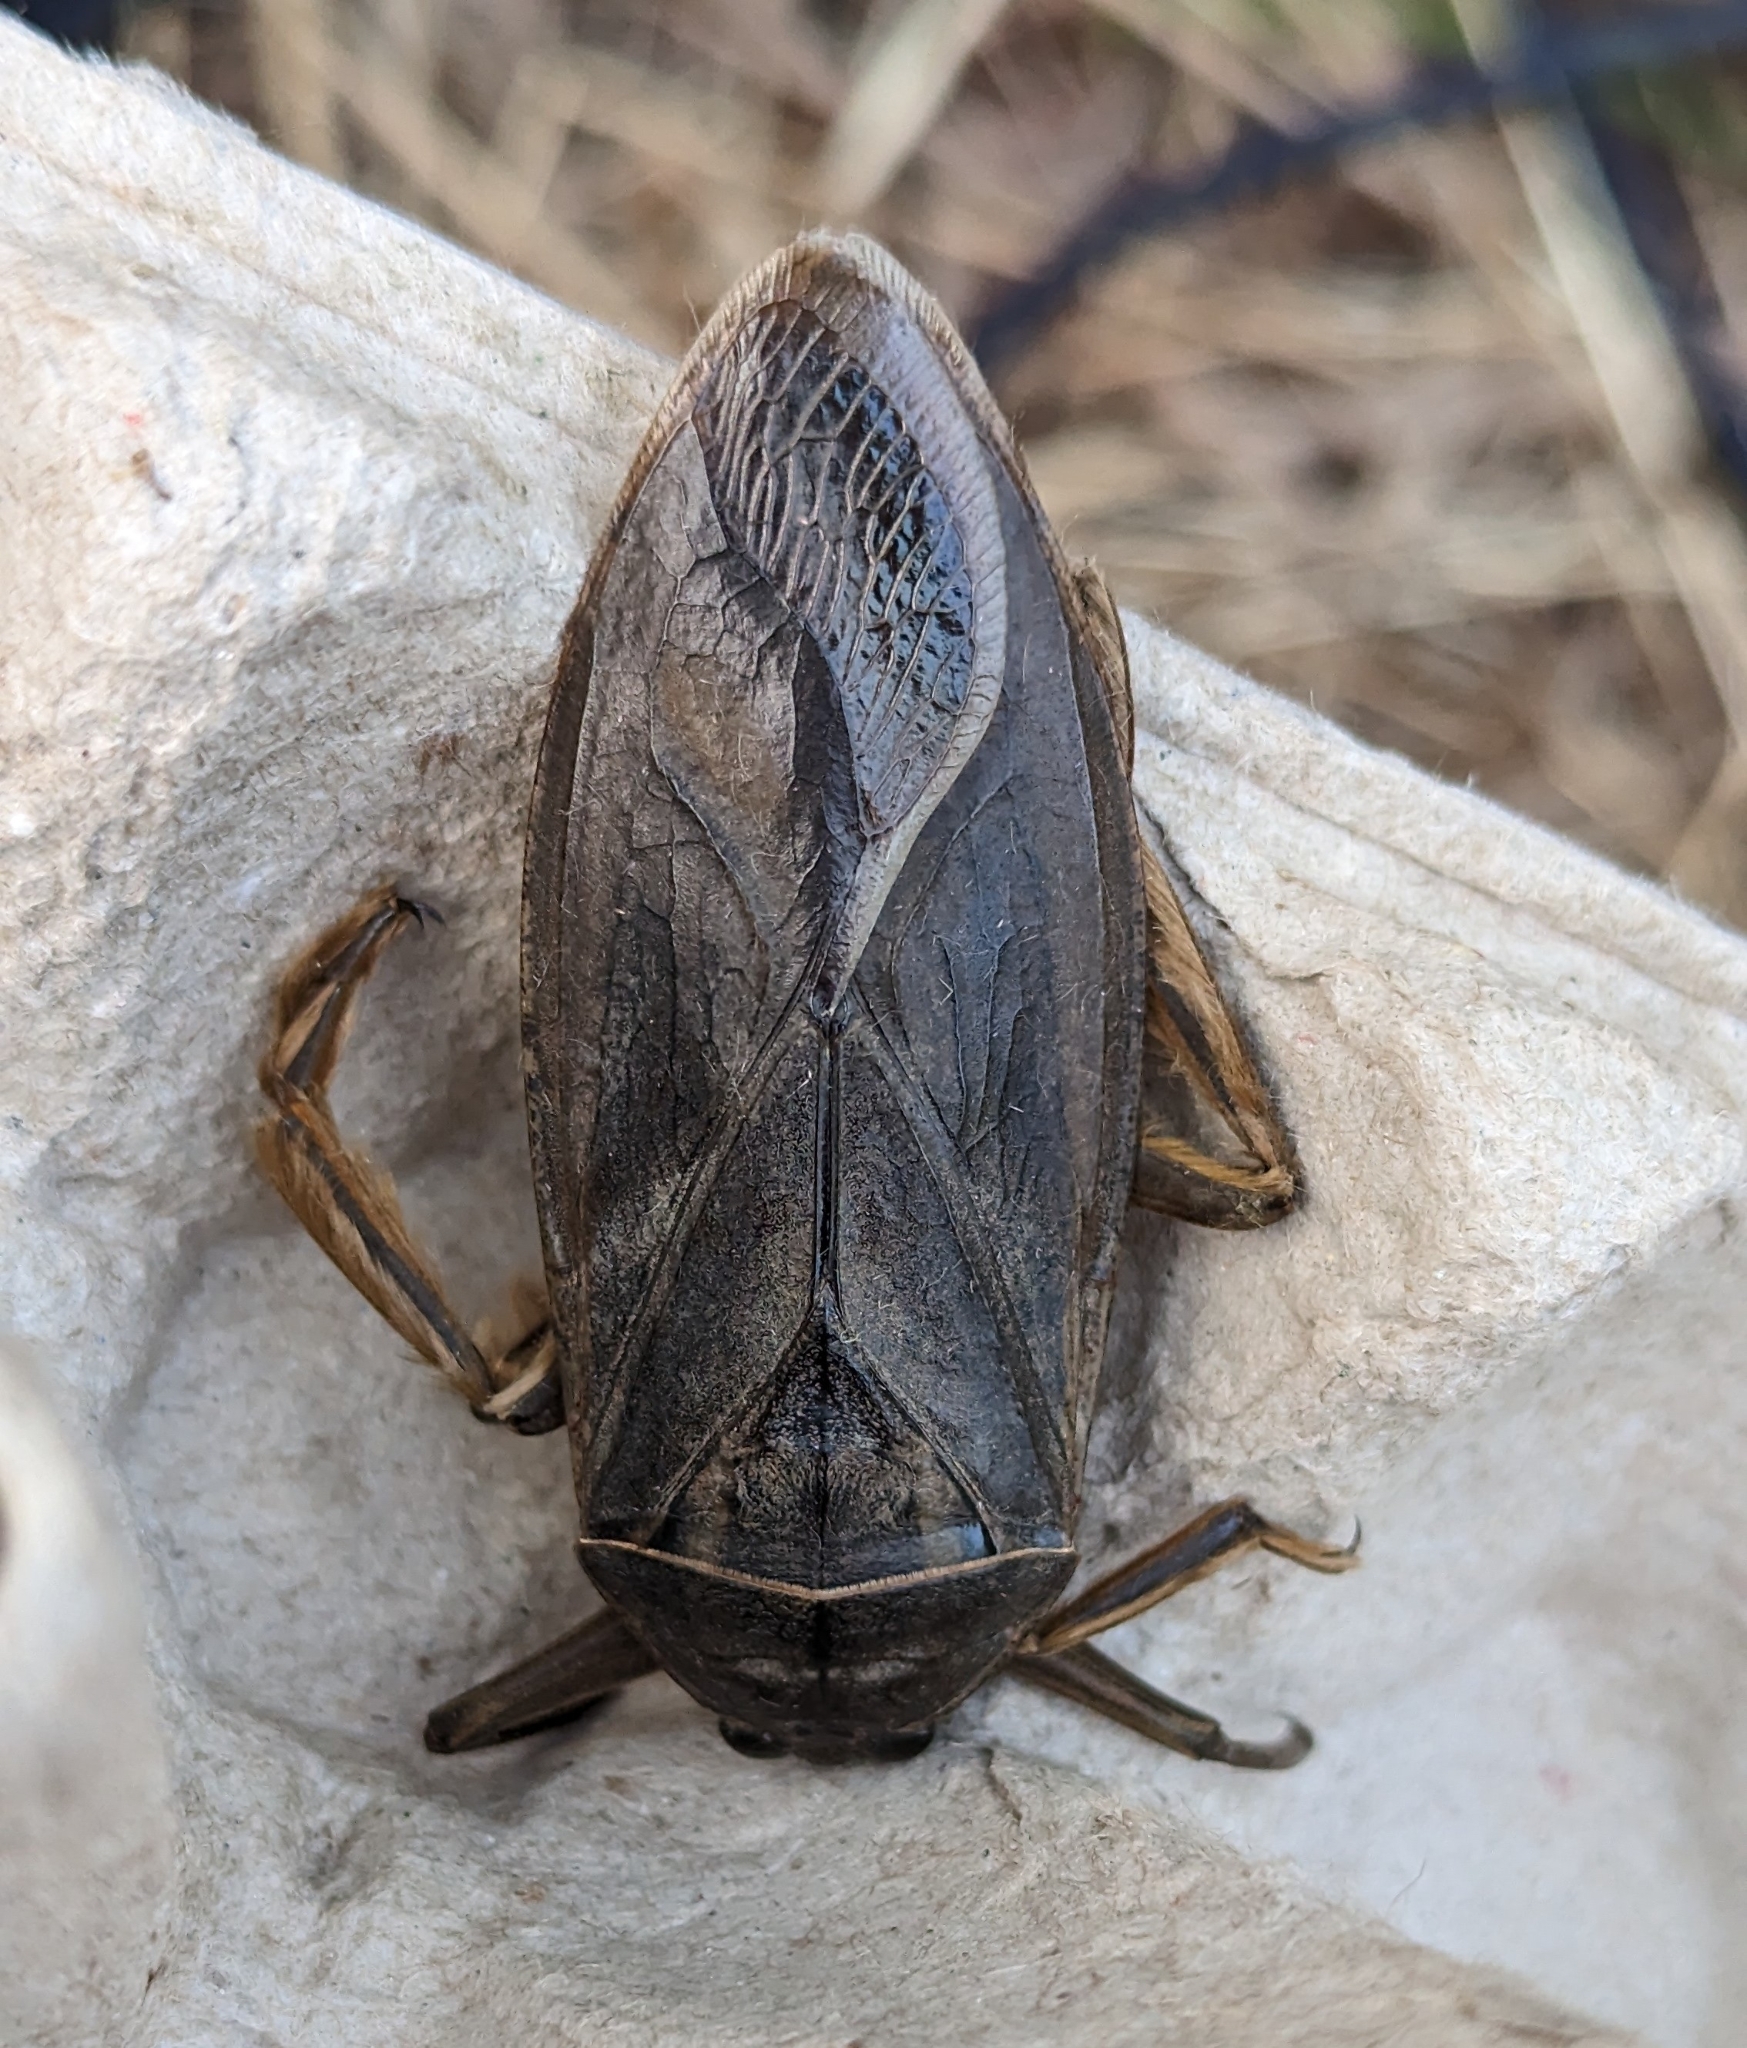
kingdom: Animalia
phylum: Arthropoda
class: Insecta
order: Hemiptera
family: Belostomatidae
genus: Lethocerus
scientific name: Lethocerus americanus
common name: Giant water bug
